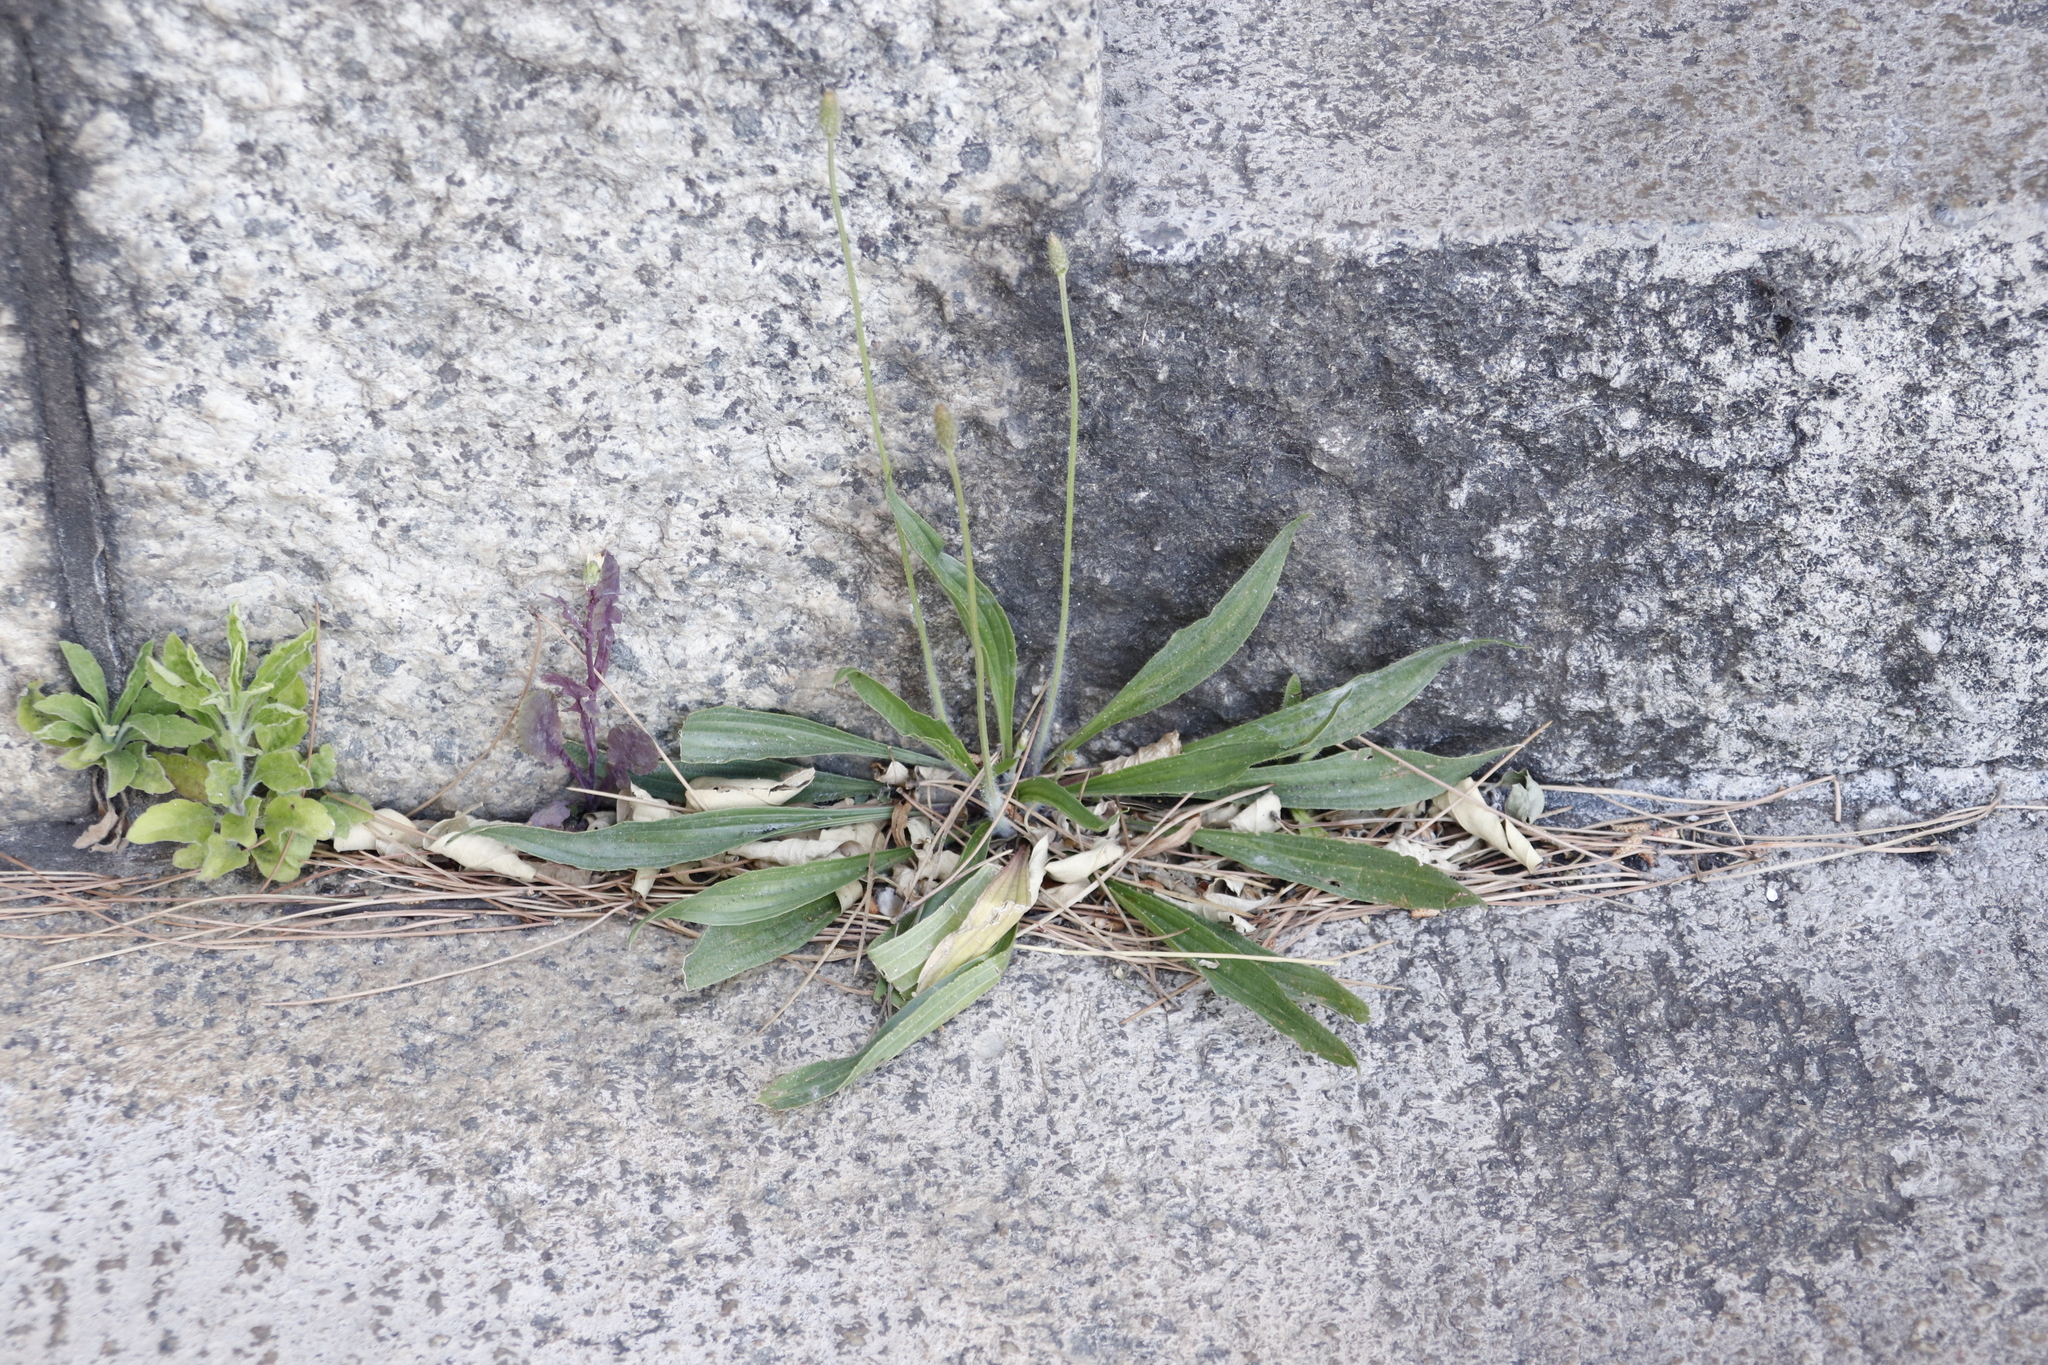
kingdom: Plantae
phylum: Tracheophyta
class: Magnoliopsida
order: Lamiales
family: Plantaginaceae
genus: Plantago
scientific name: Plantago lanceolata
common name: Ribwort plantain
